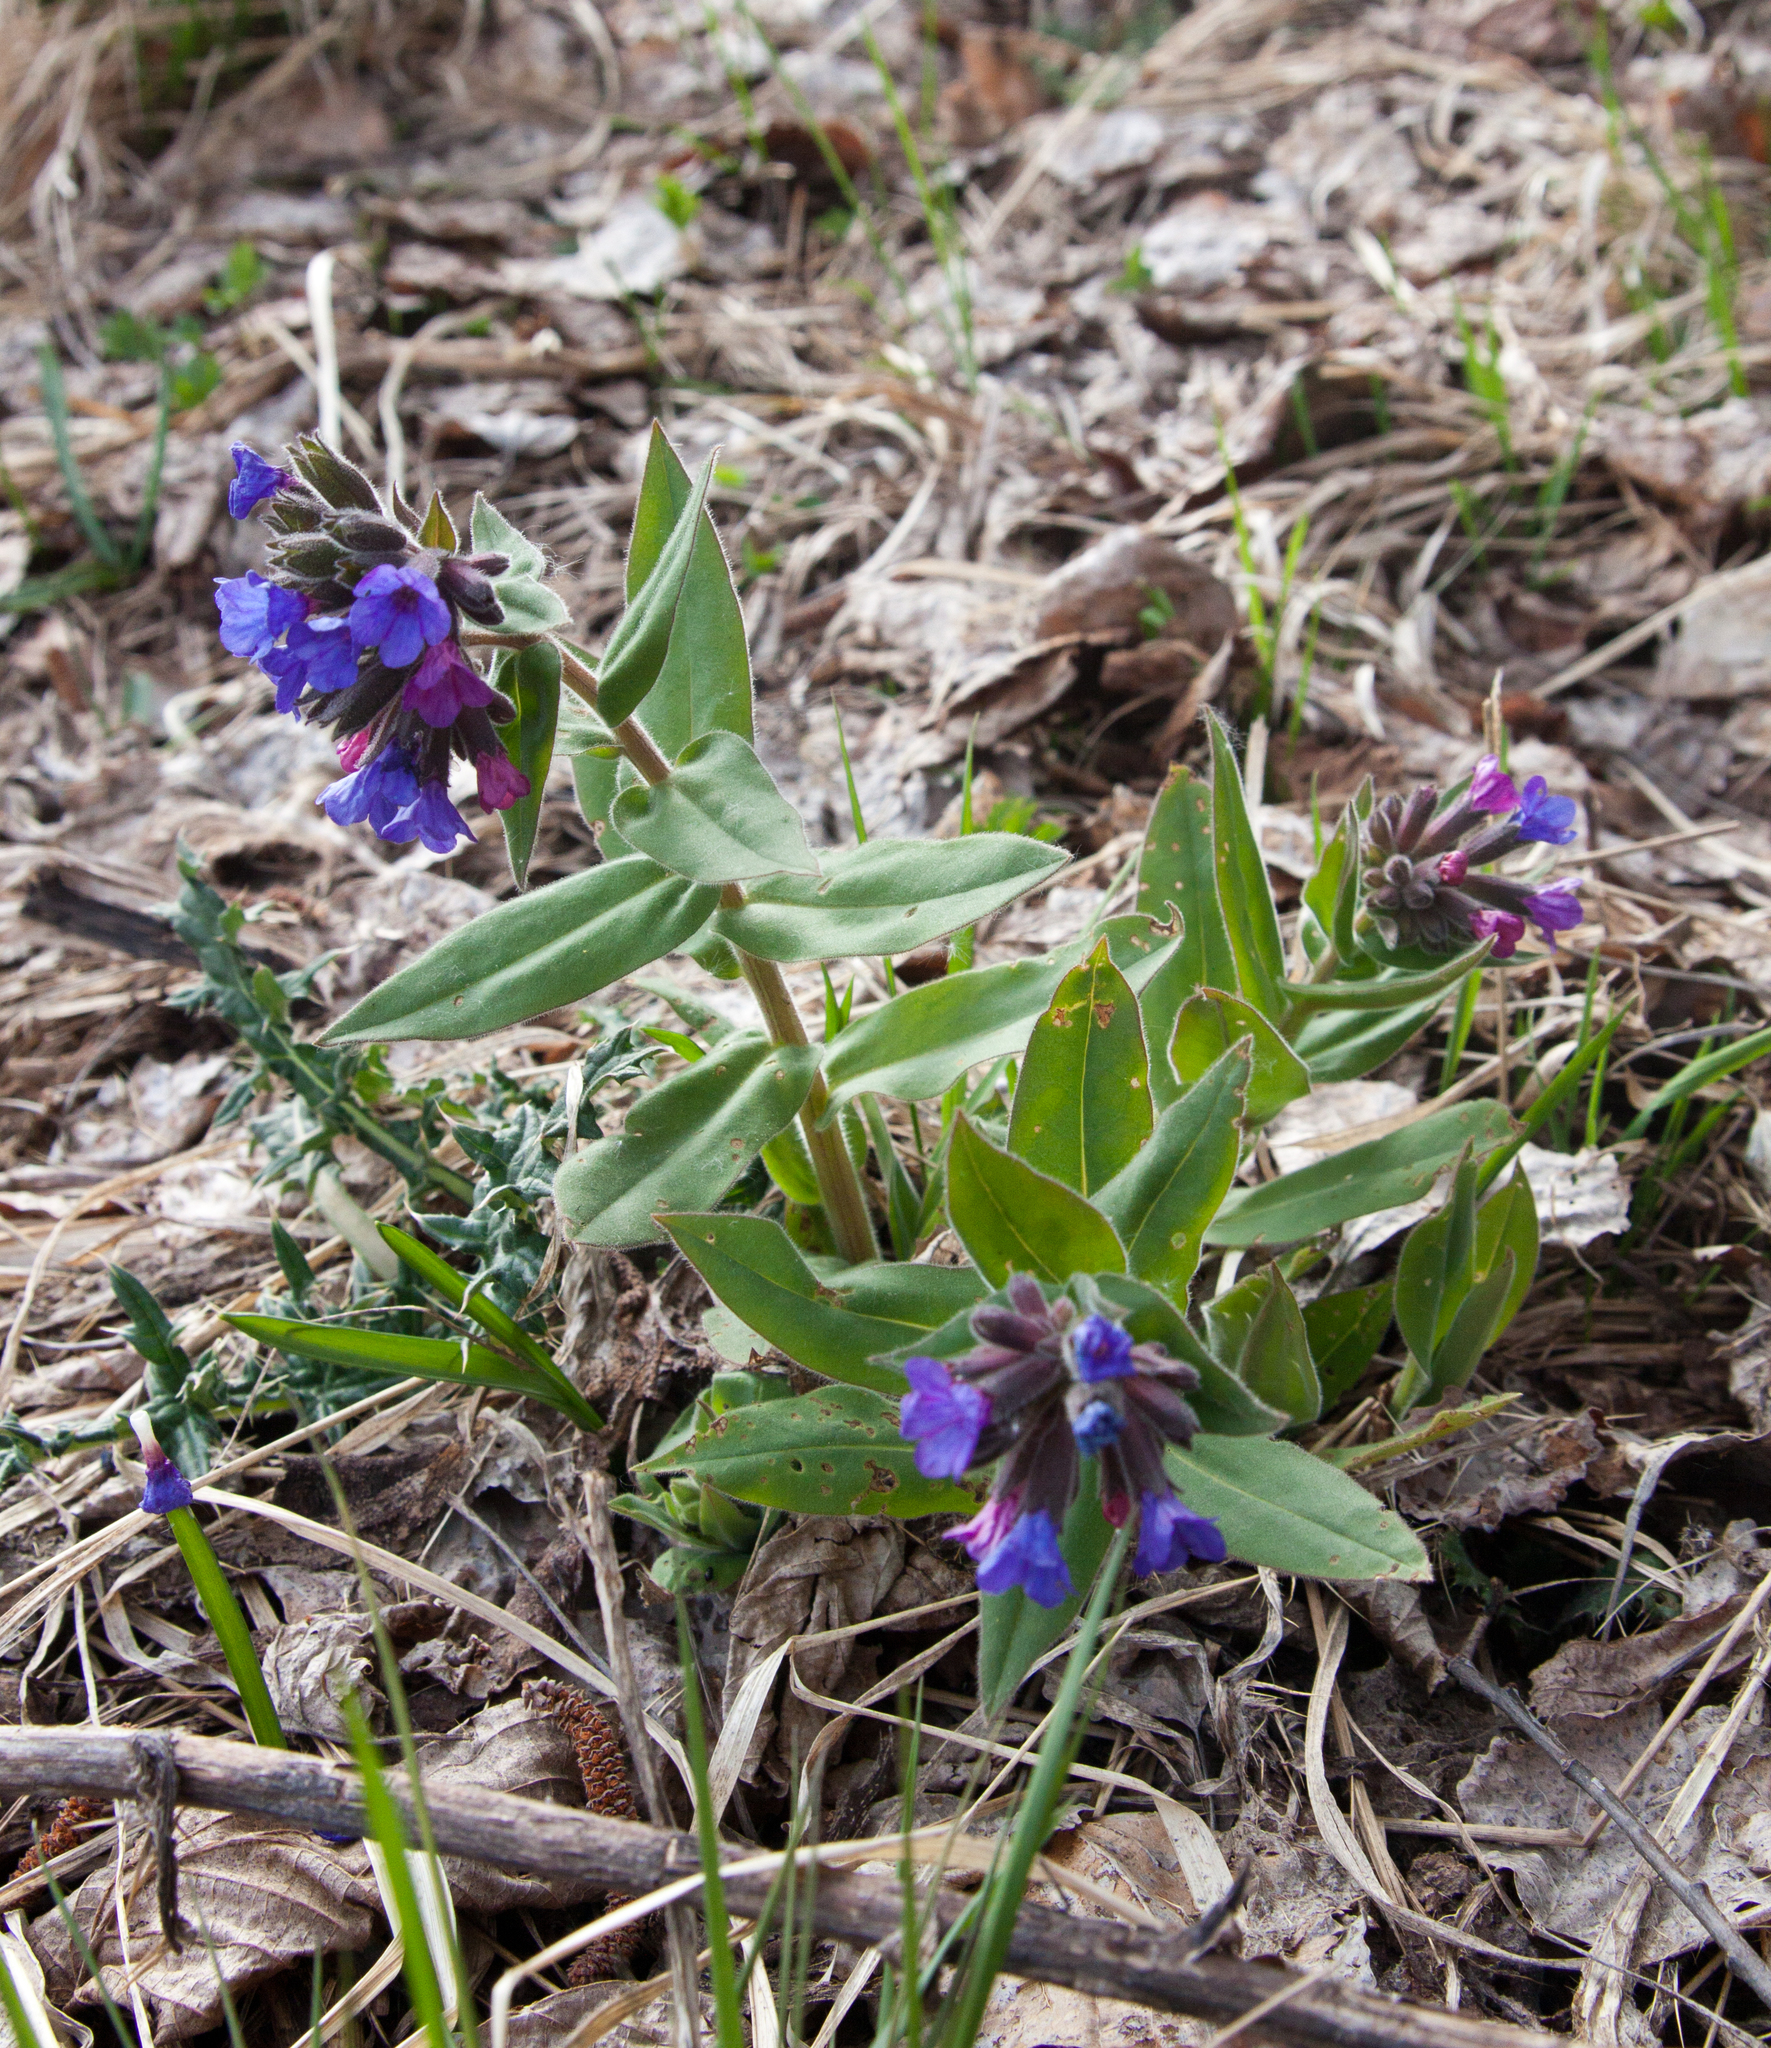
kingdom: Plantae
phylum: Tracheophyta
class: Magnoliopsida
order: Boraginales
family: Boraginaceae
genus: Pulmonaria
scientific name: Pulmonaria mollis
